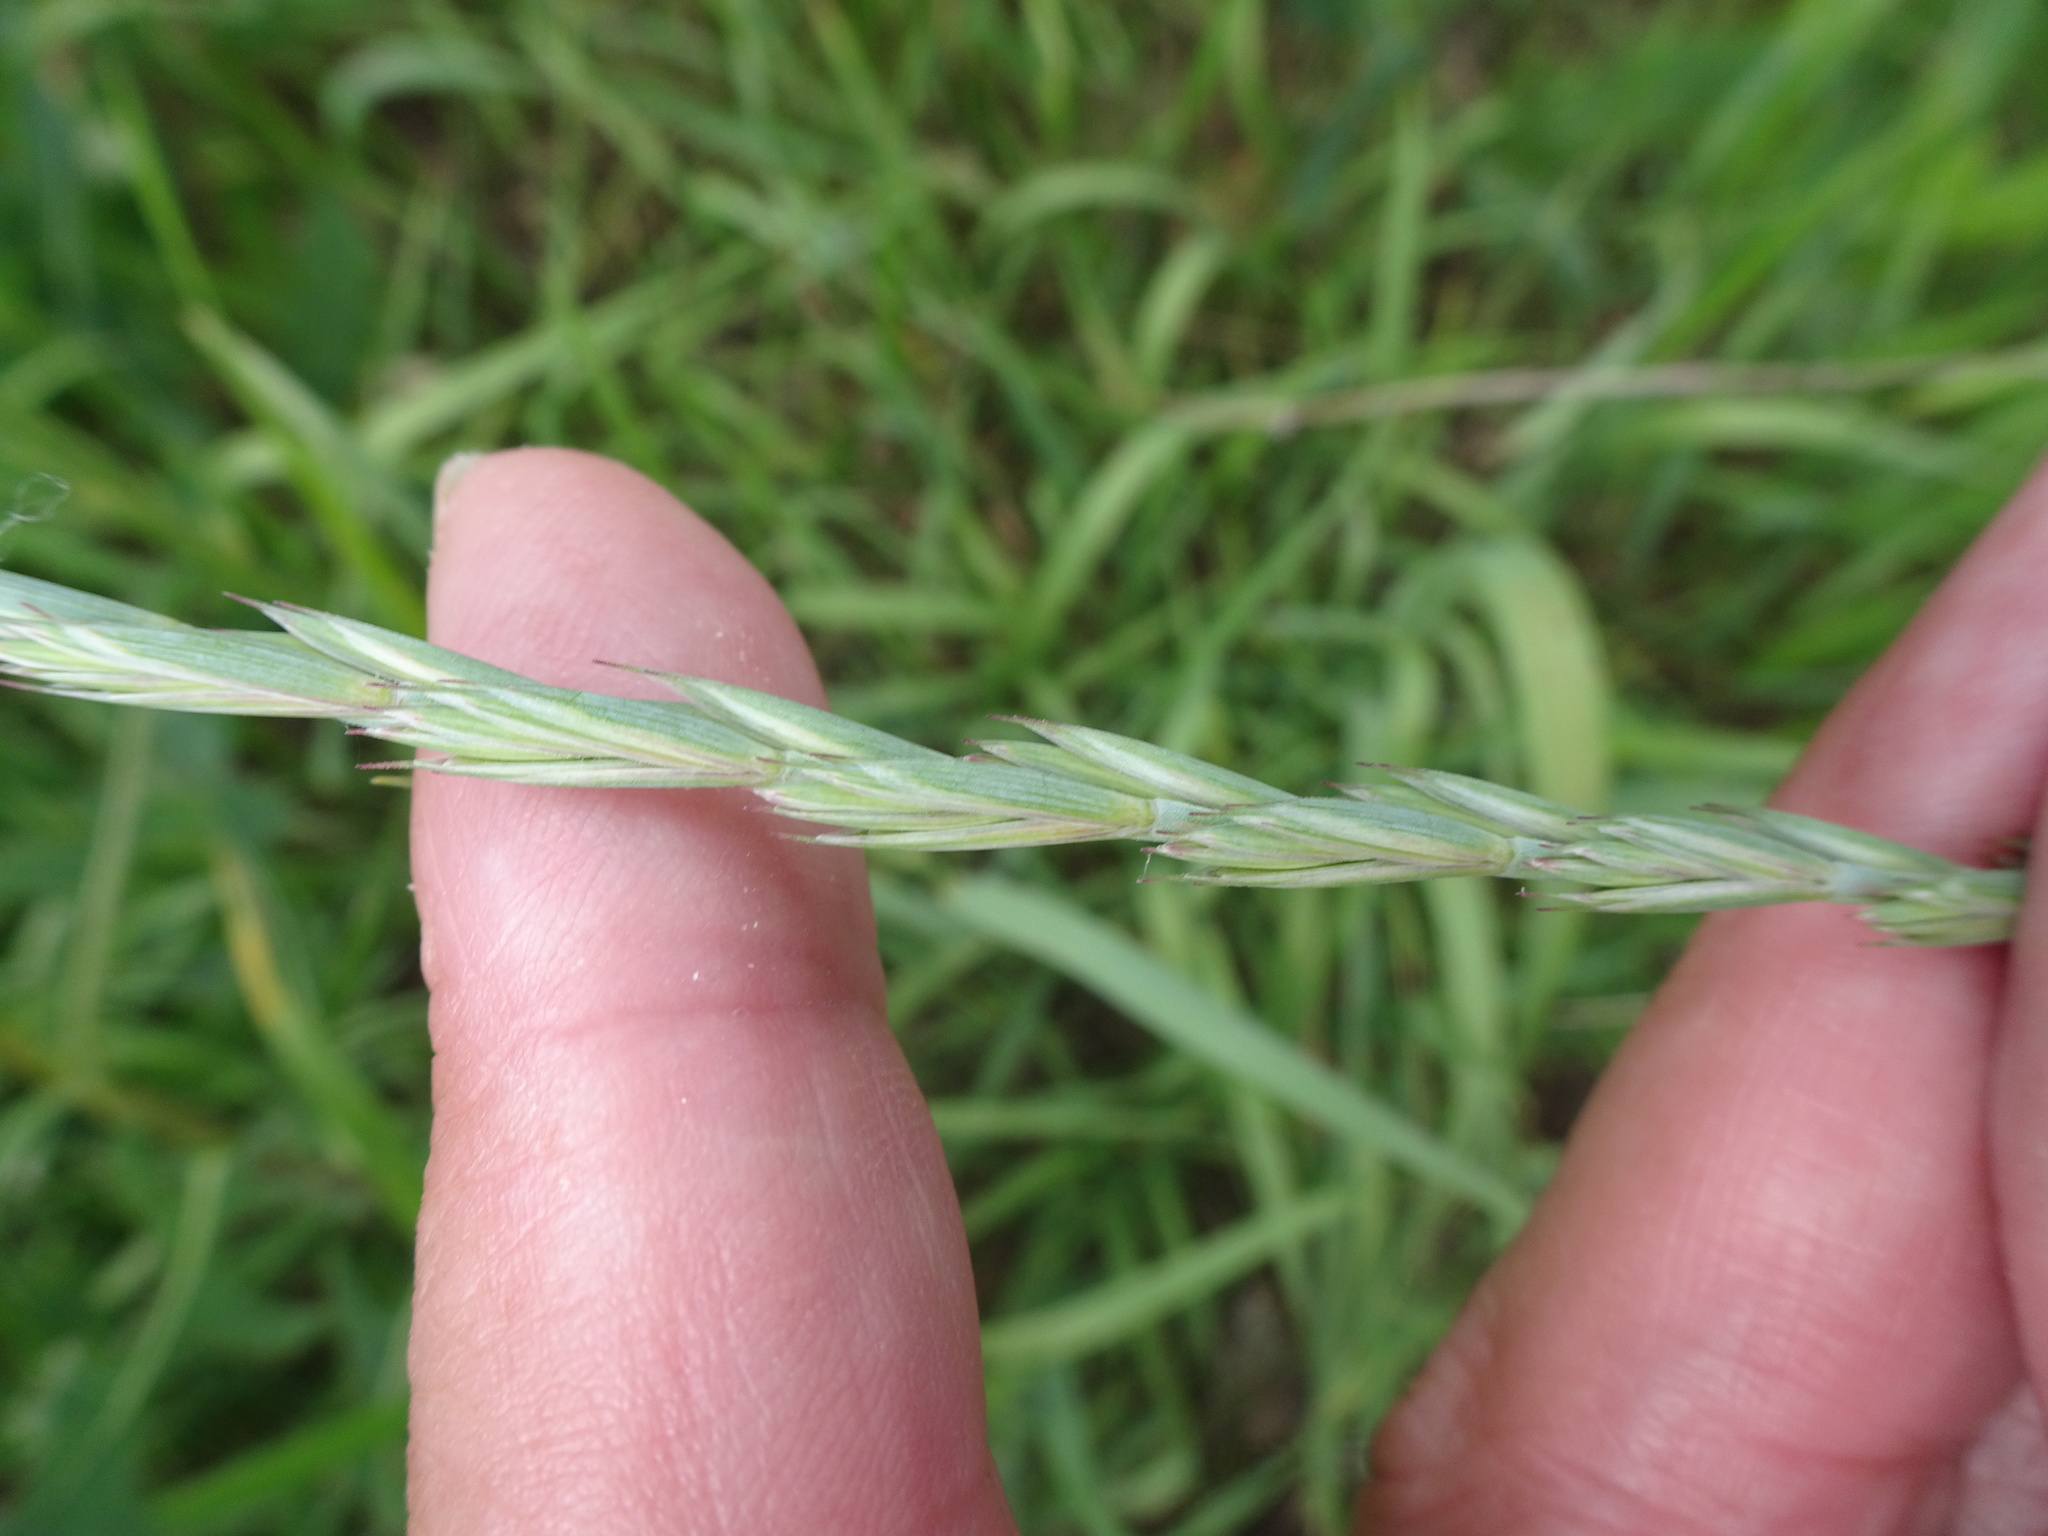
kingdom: Plantae
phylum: Tracheophyta
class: Liliopsida
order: Poales
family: Poaceae
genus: Elymus
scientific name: Elymus repens
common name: Quackgrass
